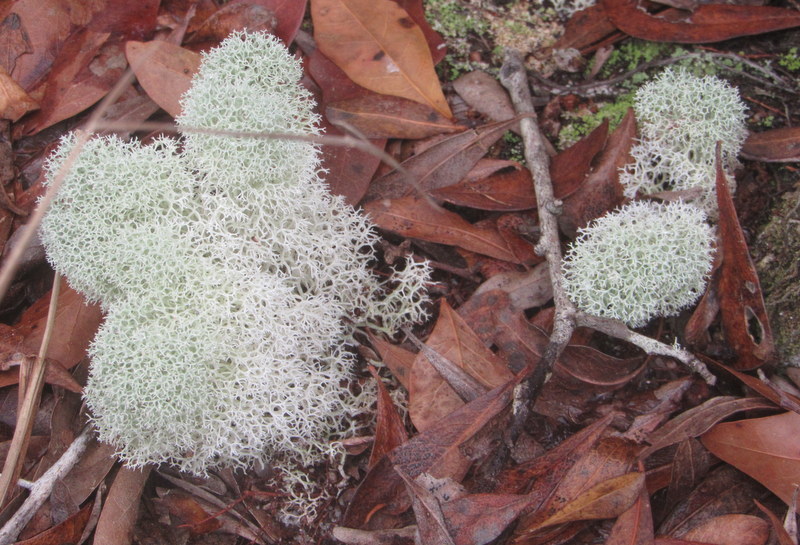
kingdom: Fungi
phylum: Ascomycota
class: Lecanoromycetes
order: Lecanorales
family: Cladoniaceae
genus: Cladonia
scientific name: Cladonia evansii
